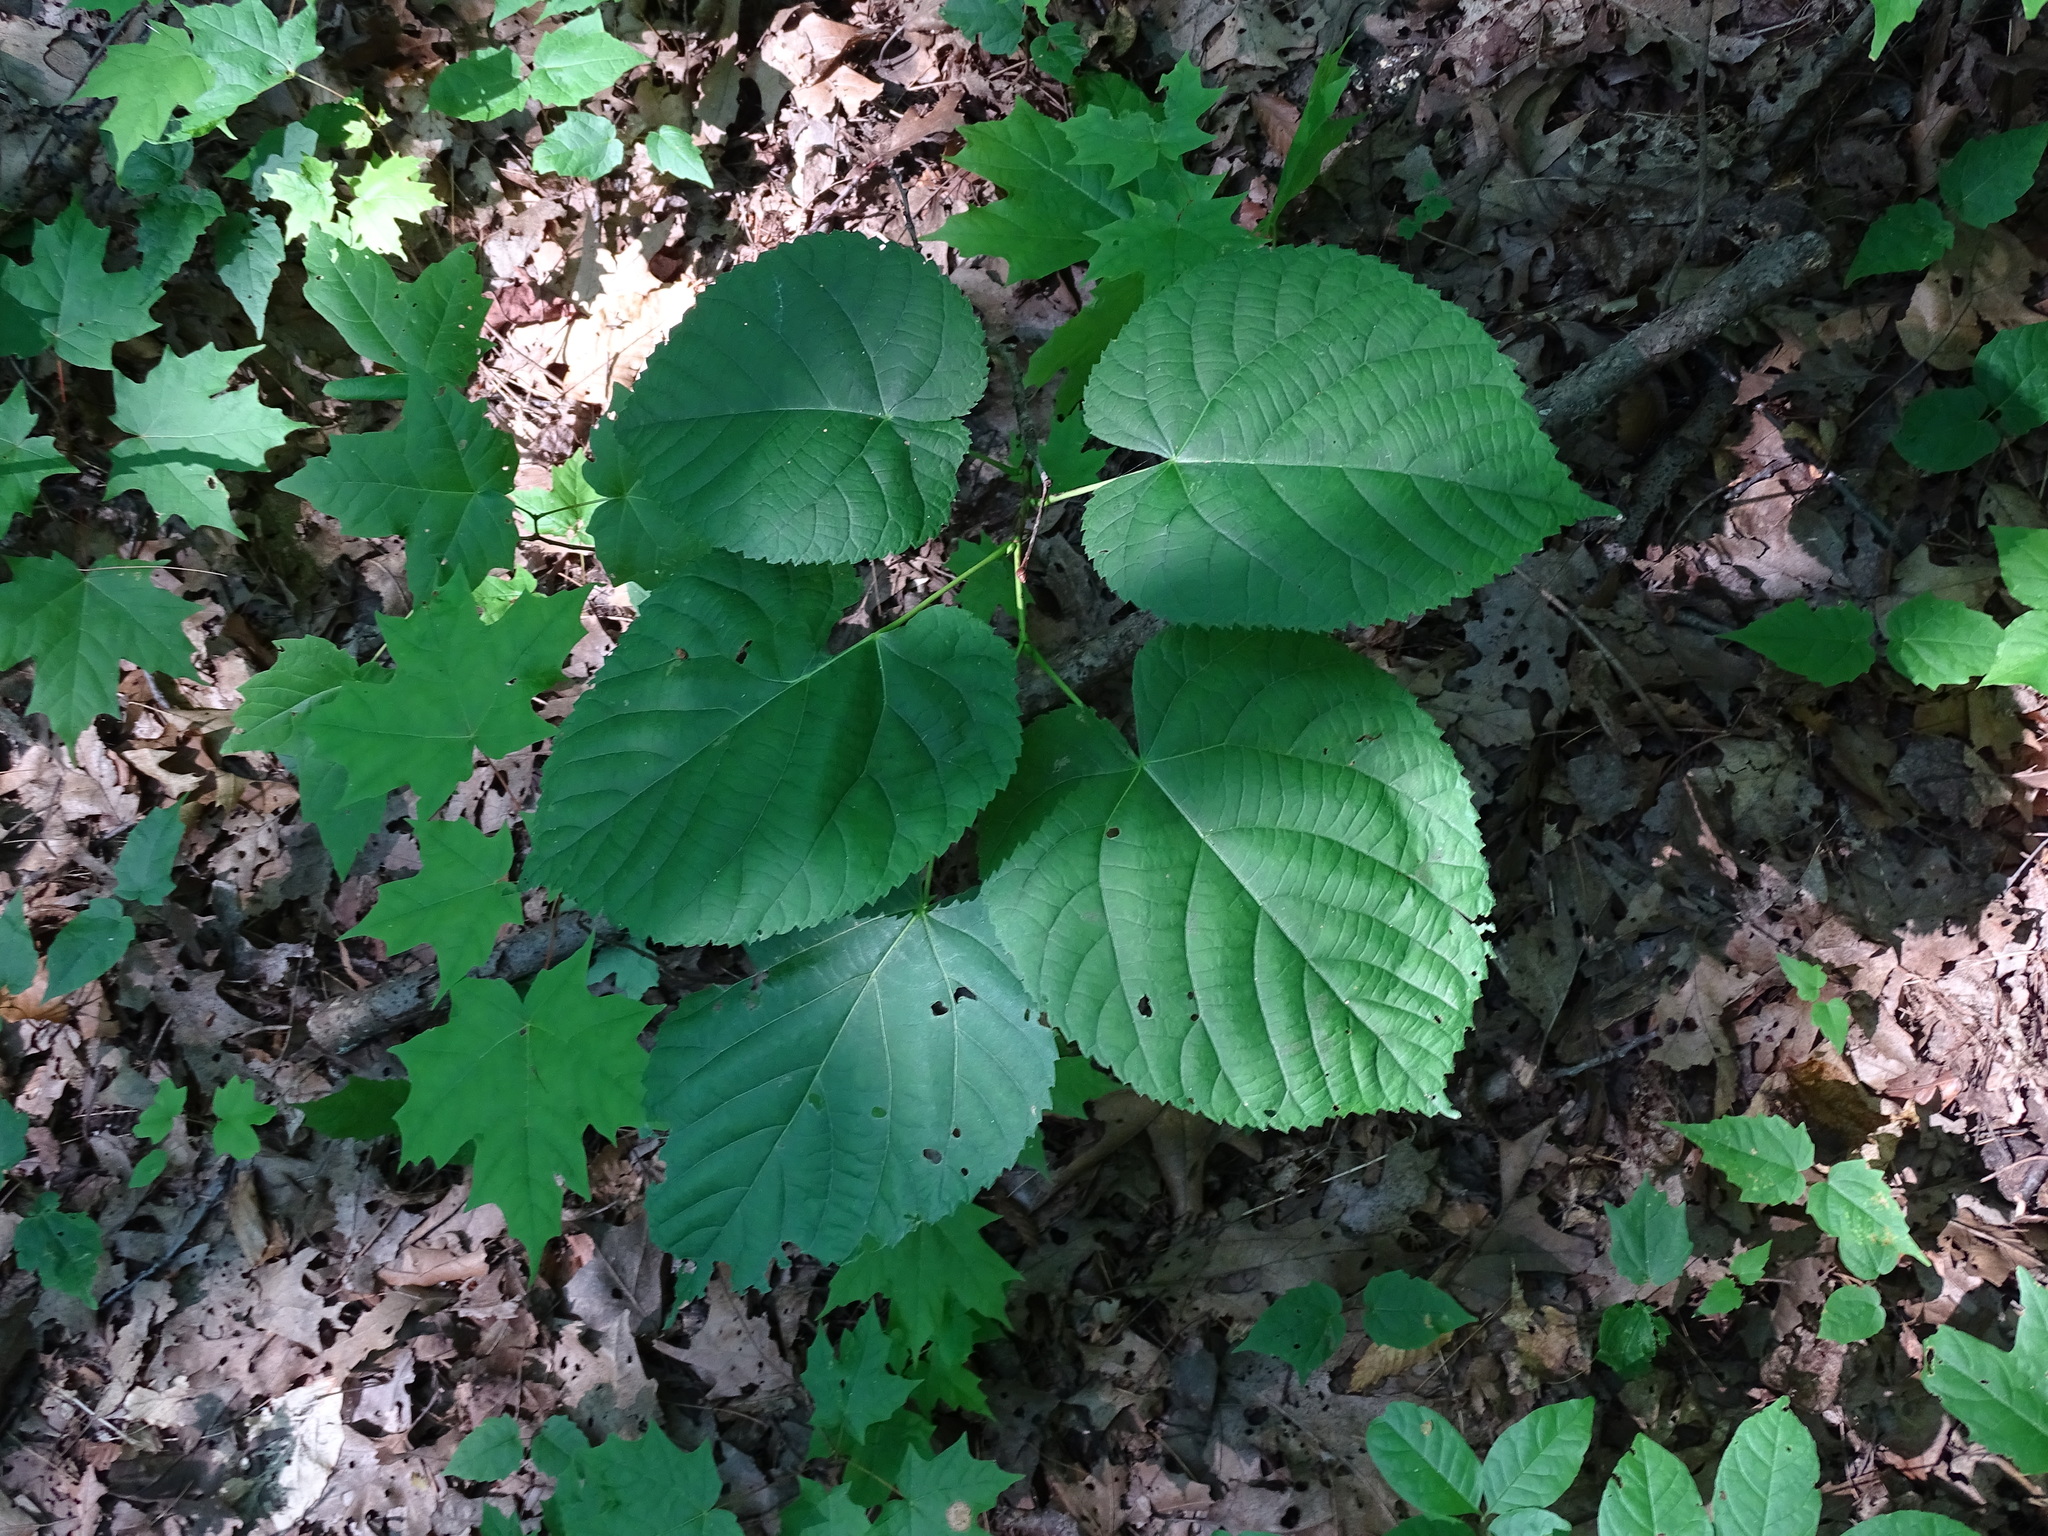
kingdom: Plantae
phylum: Tracheophyta
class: Magnoliopsida
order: Malvales
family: Malvaceae
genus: Tilia
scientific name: Tilia americana
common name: Basswood
